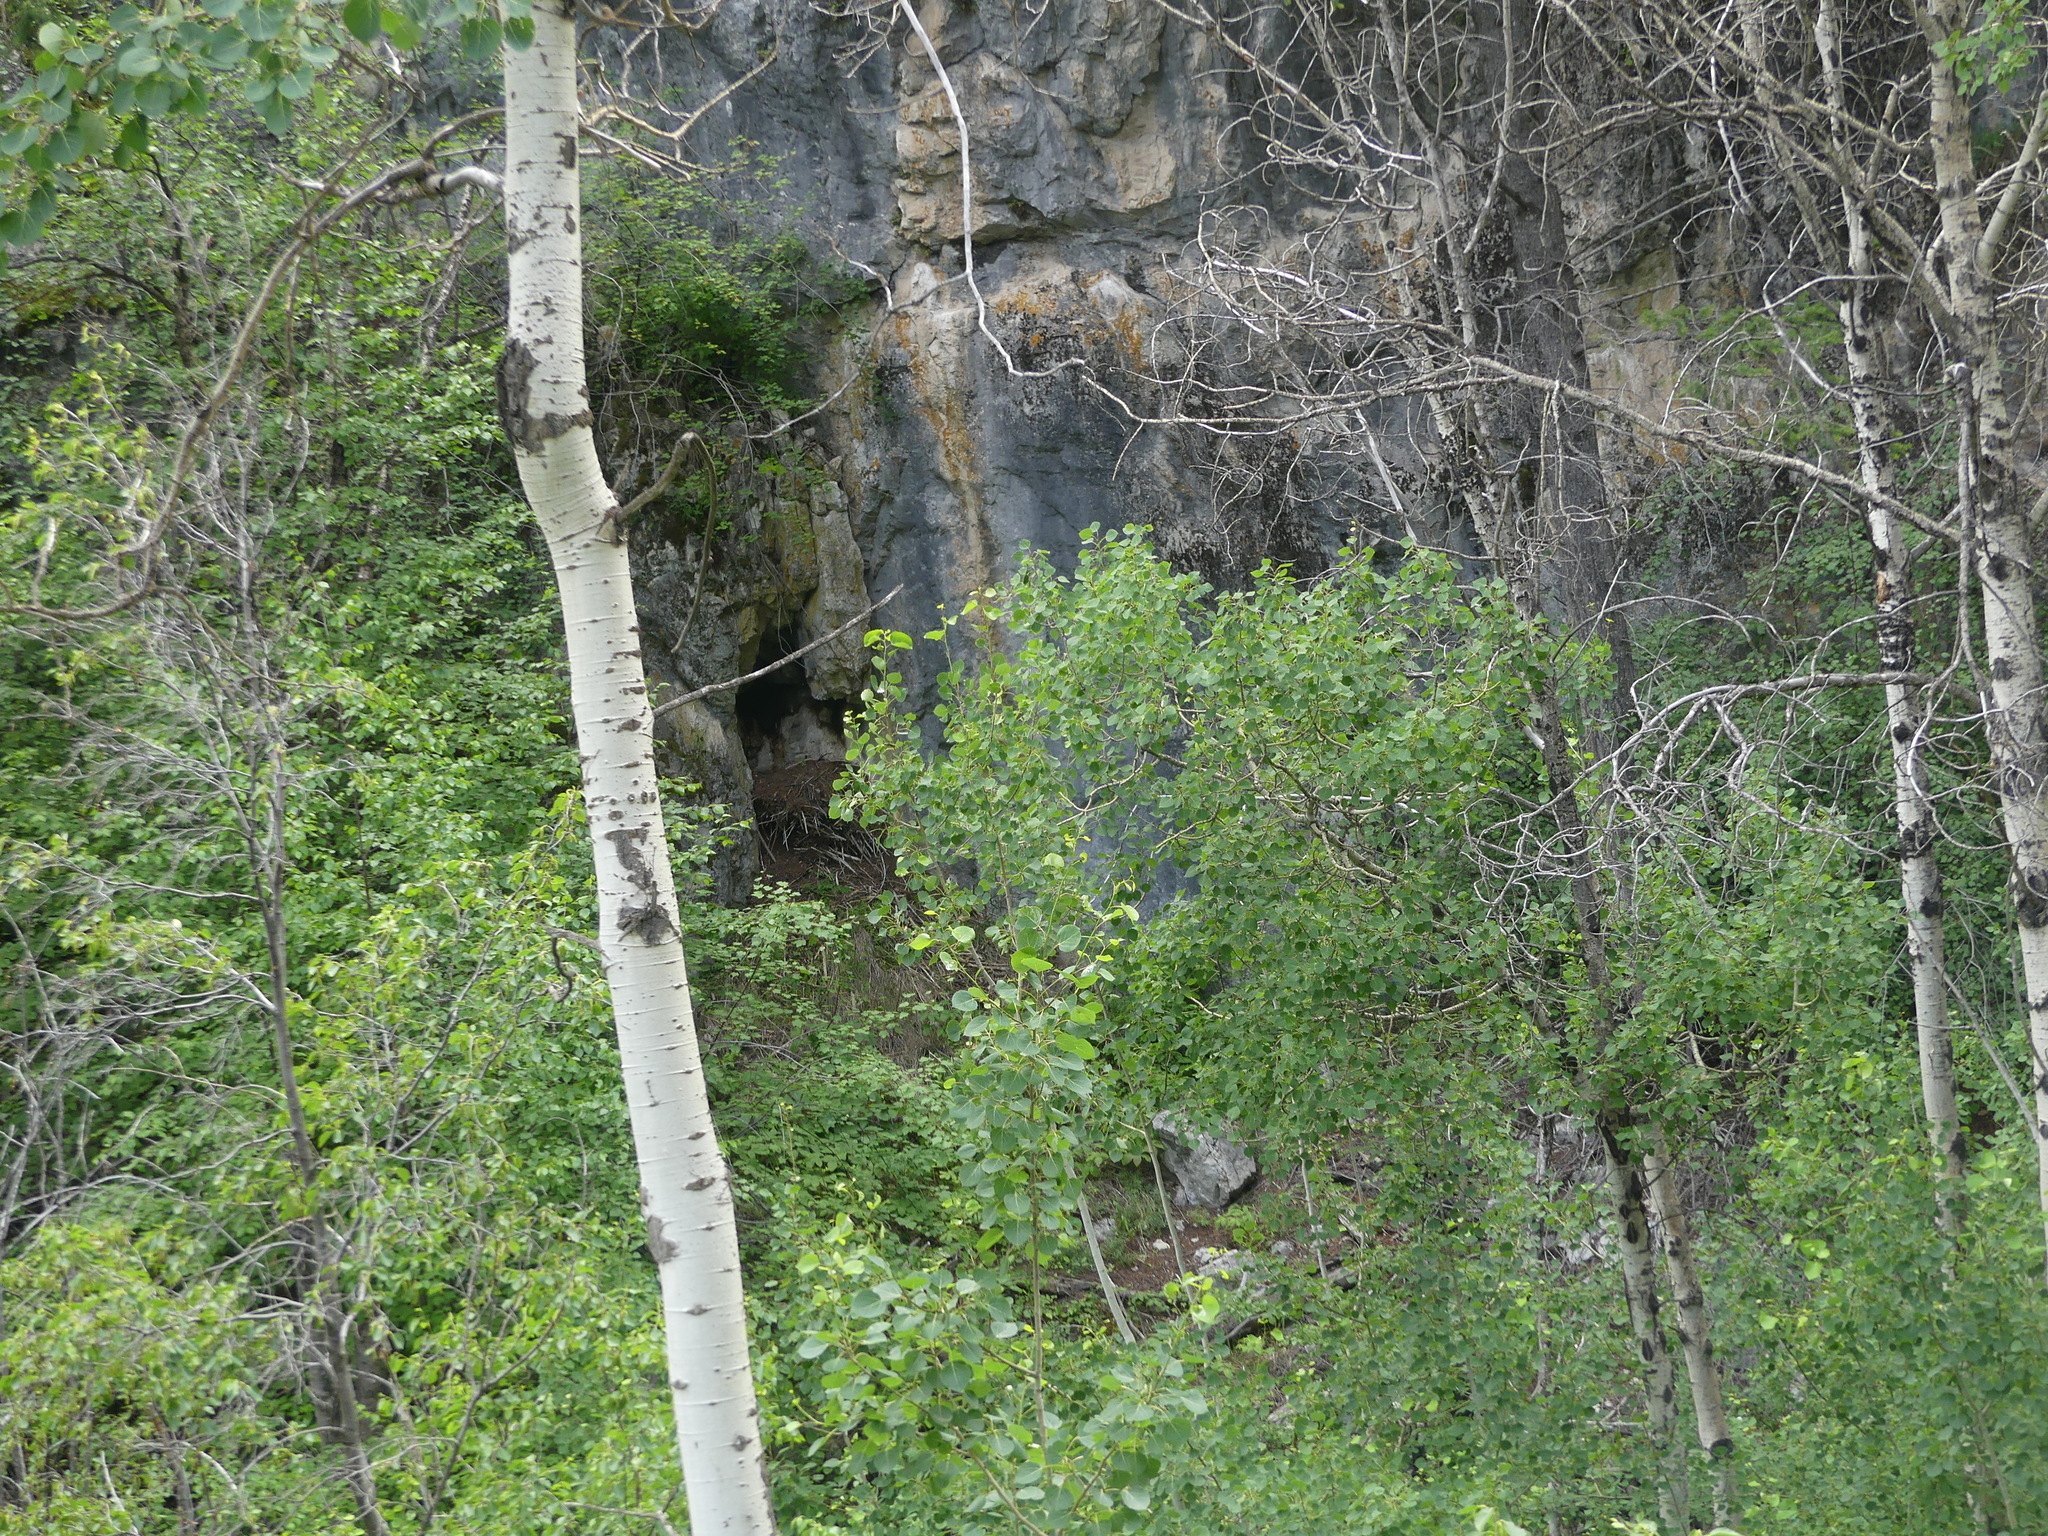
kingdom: Plantae
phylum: Tracheophyta
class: Magnoliopsida
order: Malpighiales
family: Salicaceae
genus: Populus
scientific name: Populus tremuloides
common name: Quaking aspen
